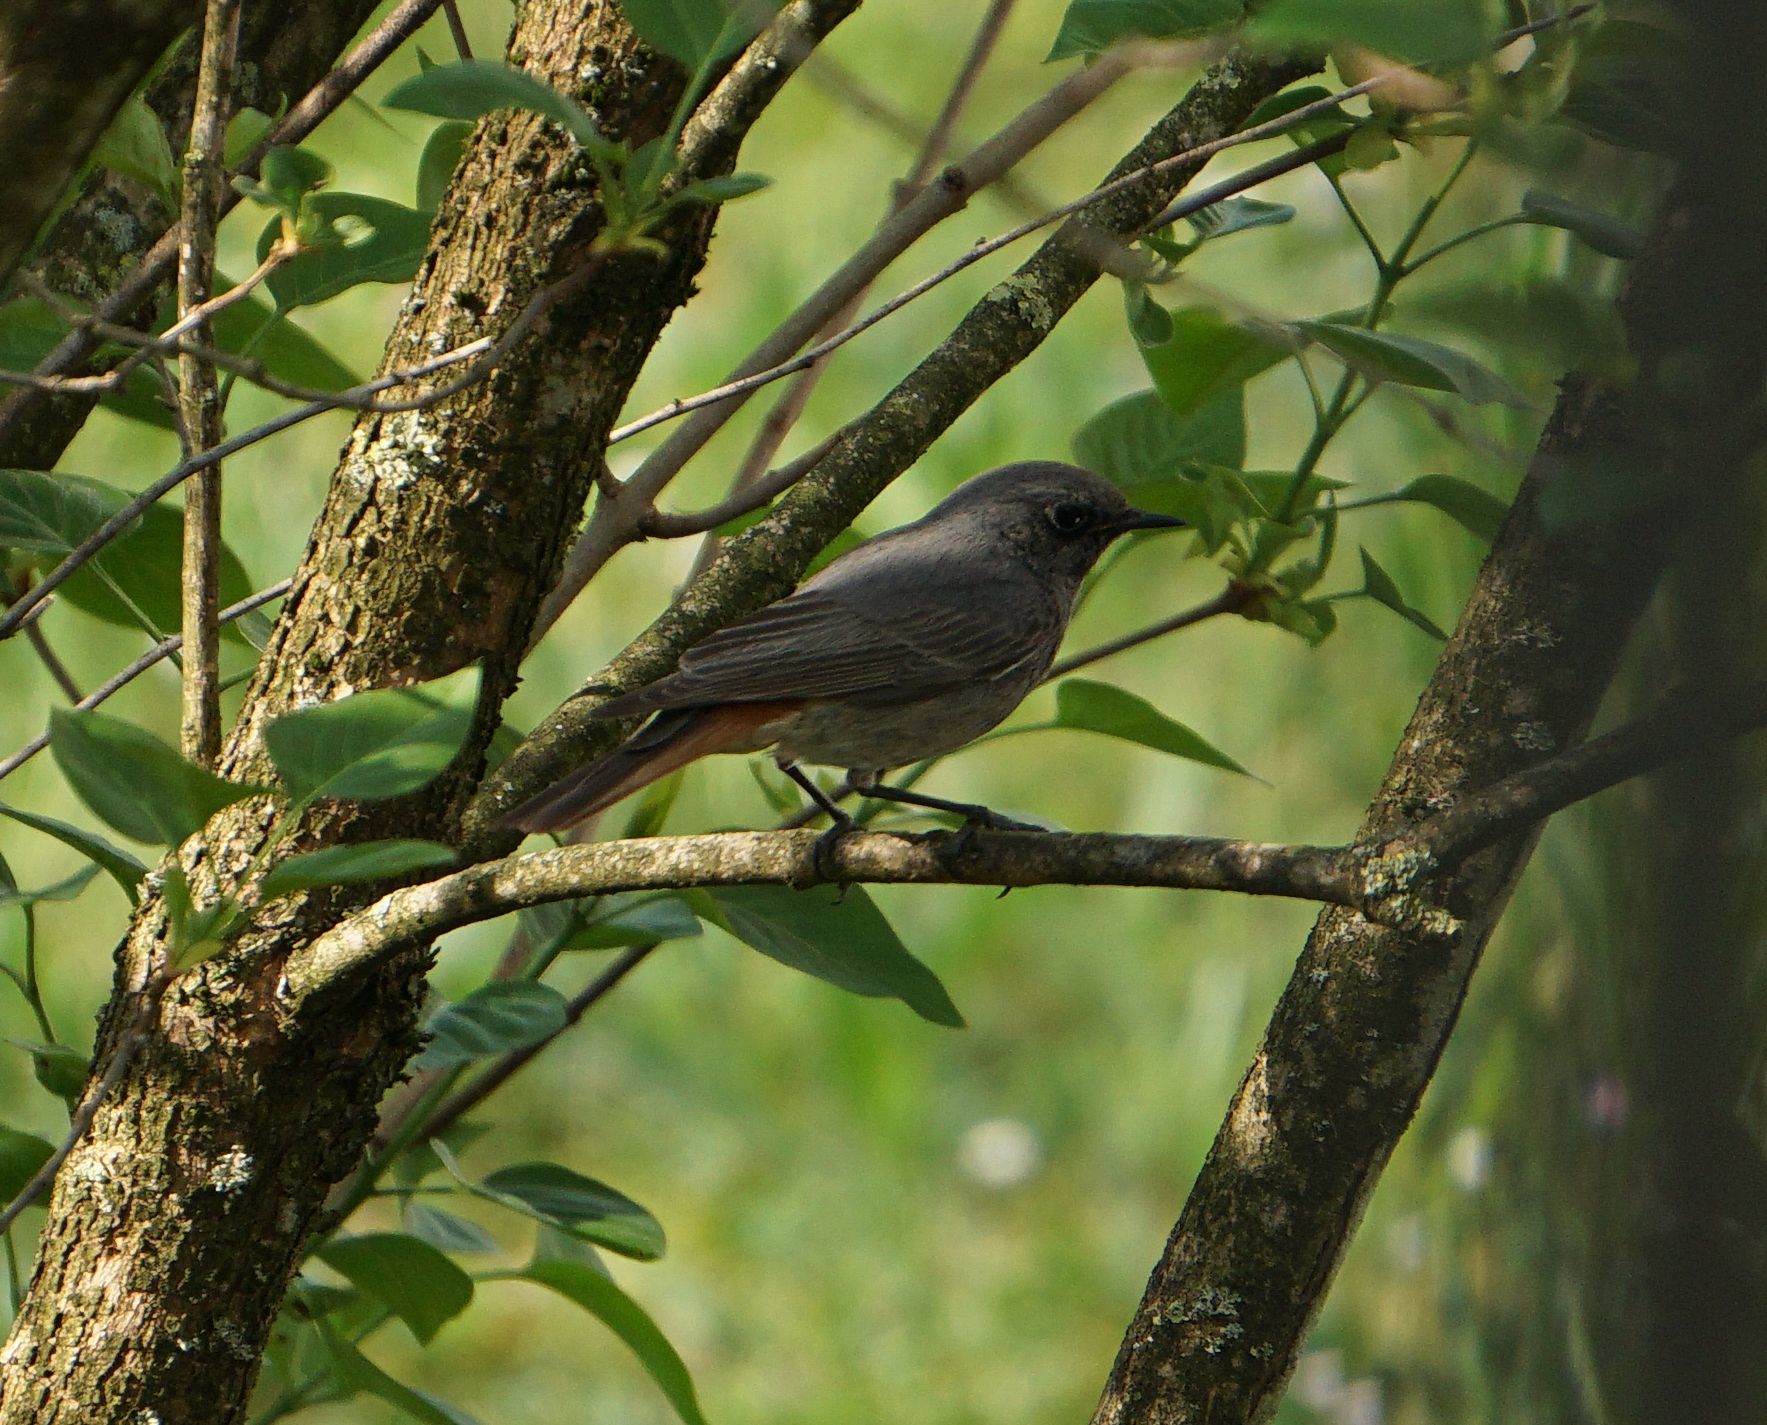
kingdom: Animalia
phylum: Chordata
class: Aves
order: Passeriformes
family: Muscicapidae
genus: Phoenicurus
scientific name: Phoenicurus ochruros
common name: Black redstart
